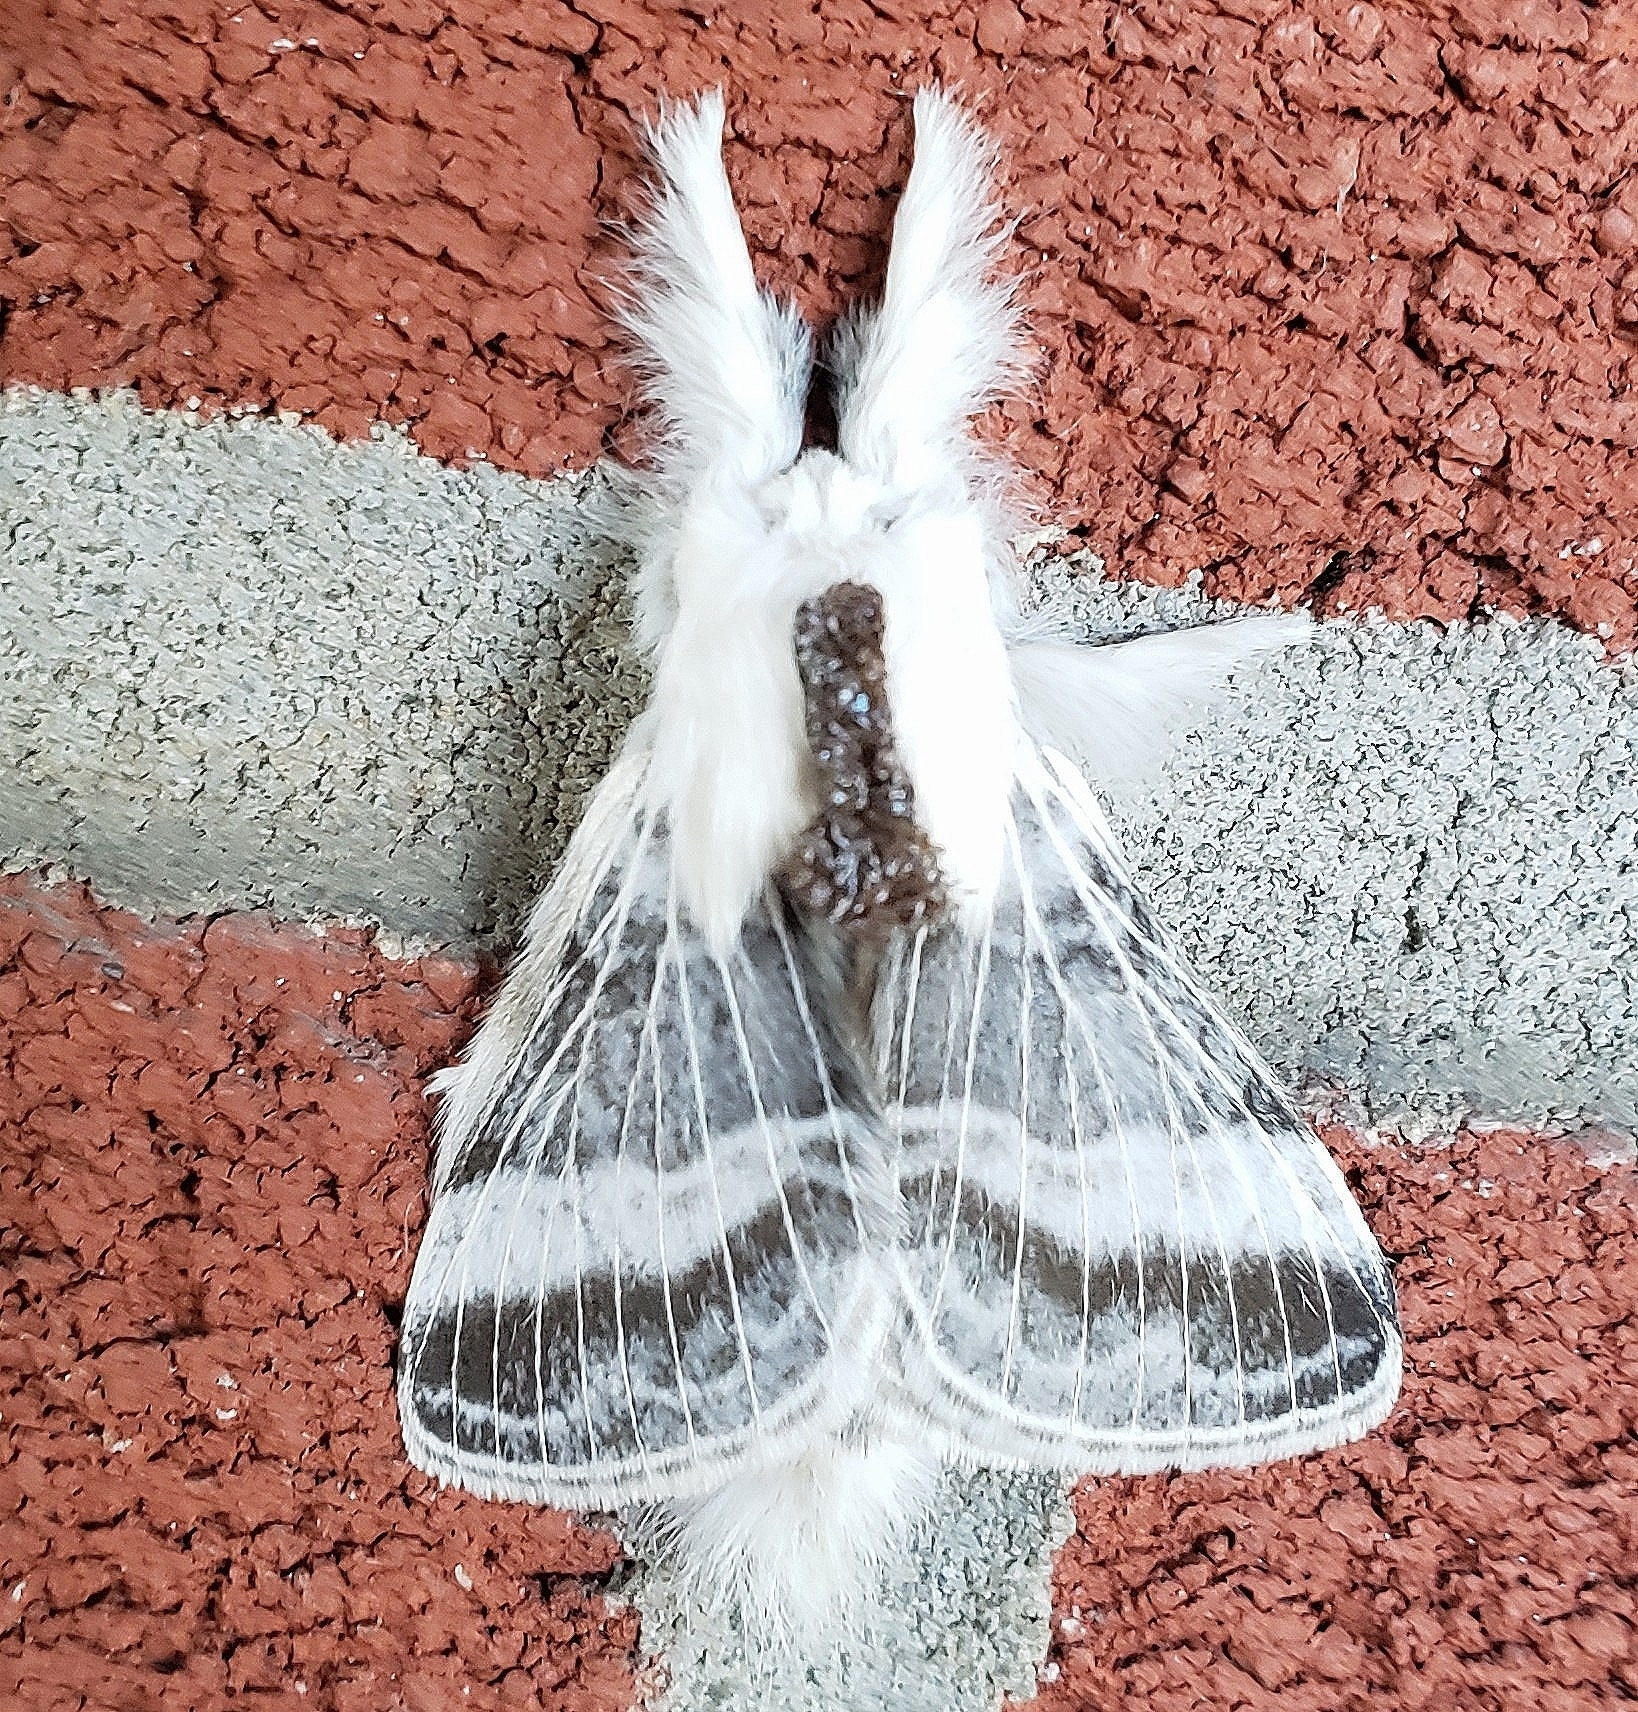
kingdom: Animalia
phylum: Arthropoda
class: Insecta
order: Lepidoptera
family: Lasiocampidae
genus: Tolype
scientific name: Tolype velleda
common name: Large tolype moth
